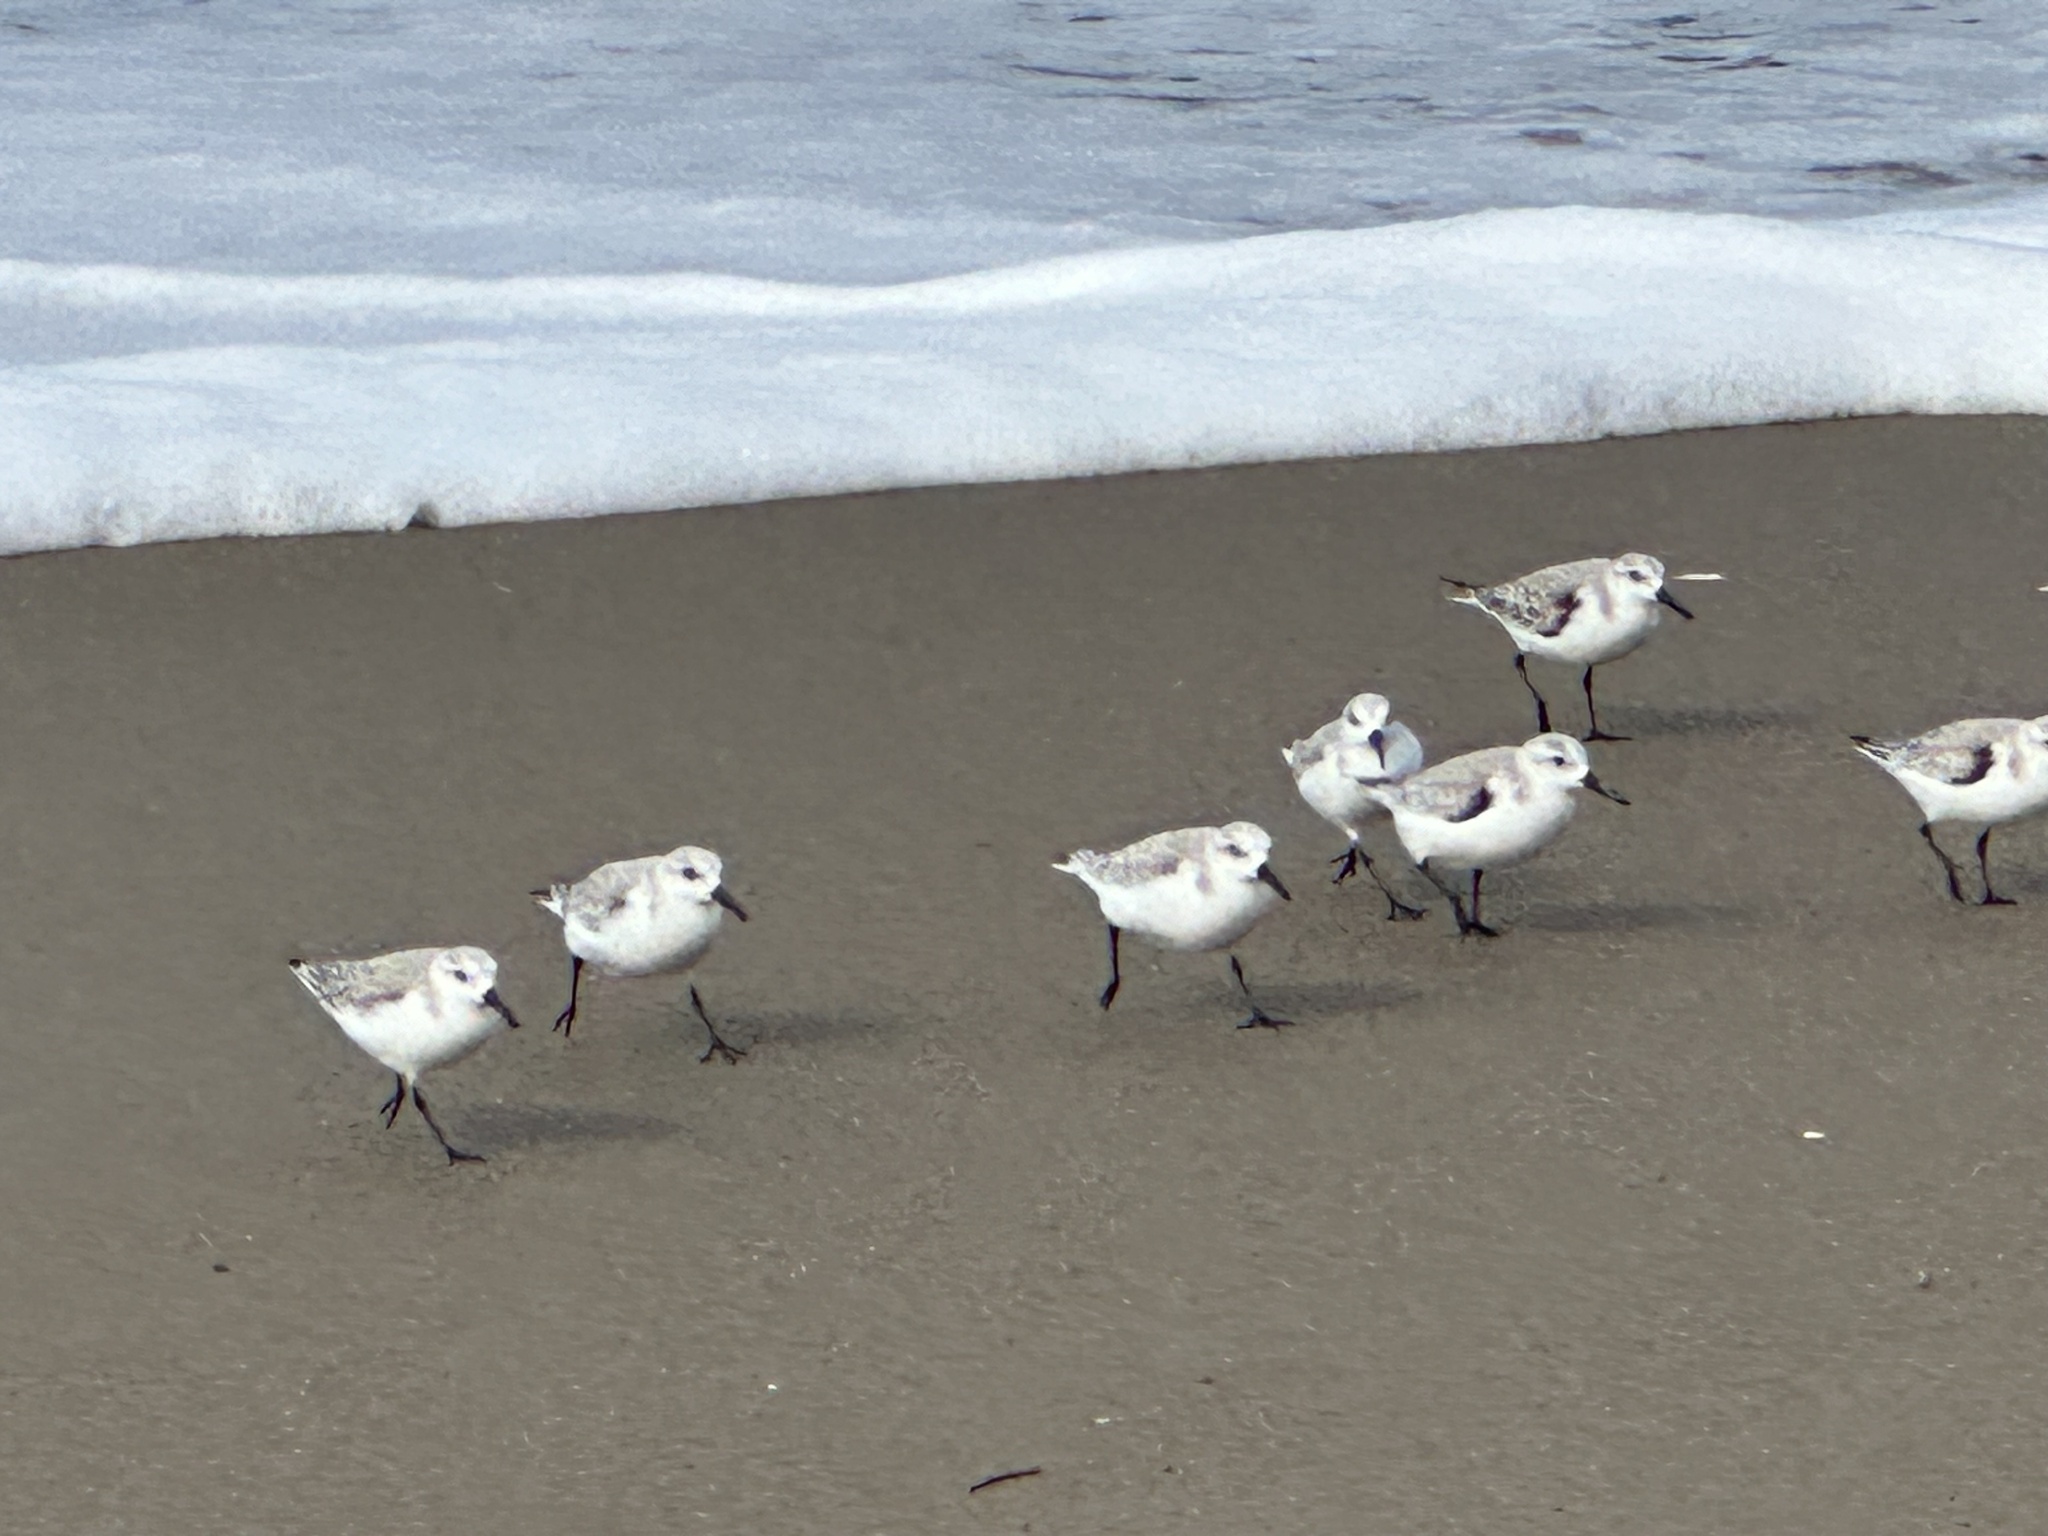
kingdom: Animalia
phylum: Chordata
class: Aves
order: Charadriiformes
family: Scolopacidae
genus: Calidris
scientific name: Calidris alba
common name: Sanderling
